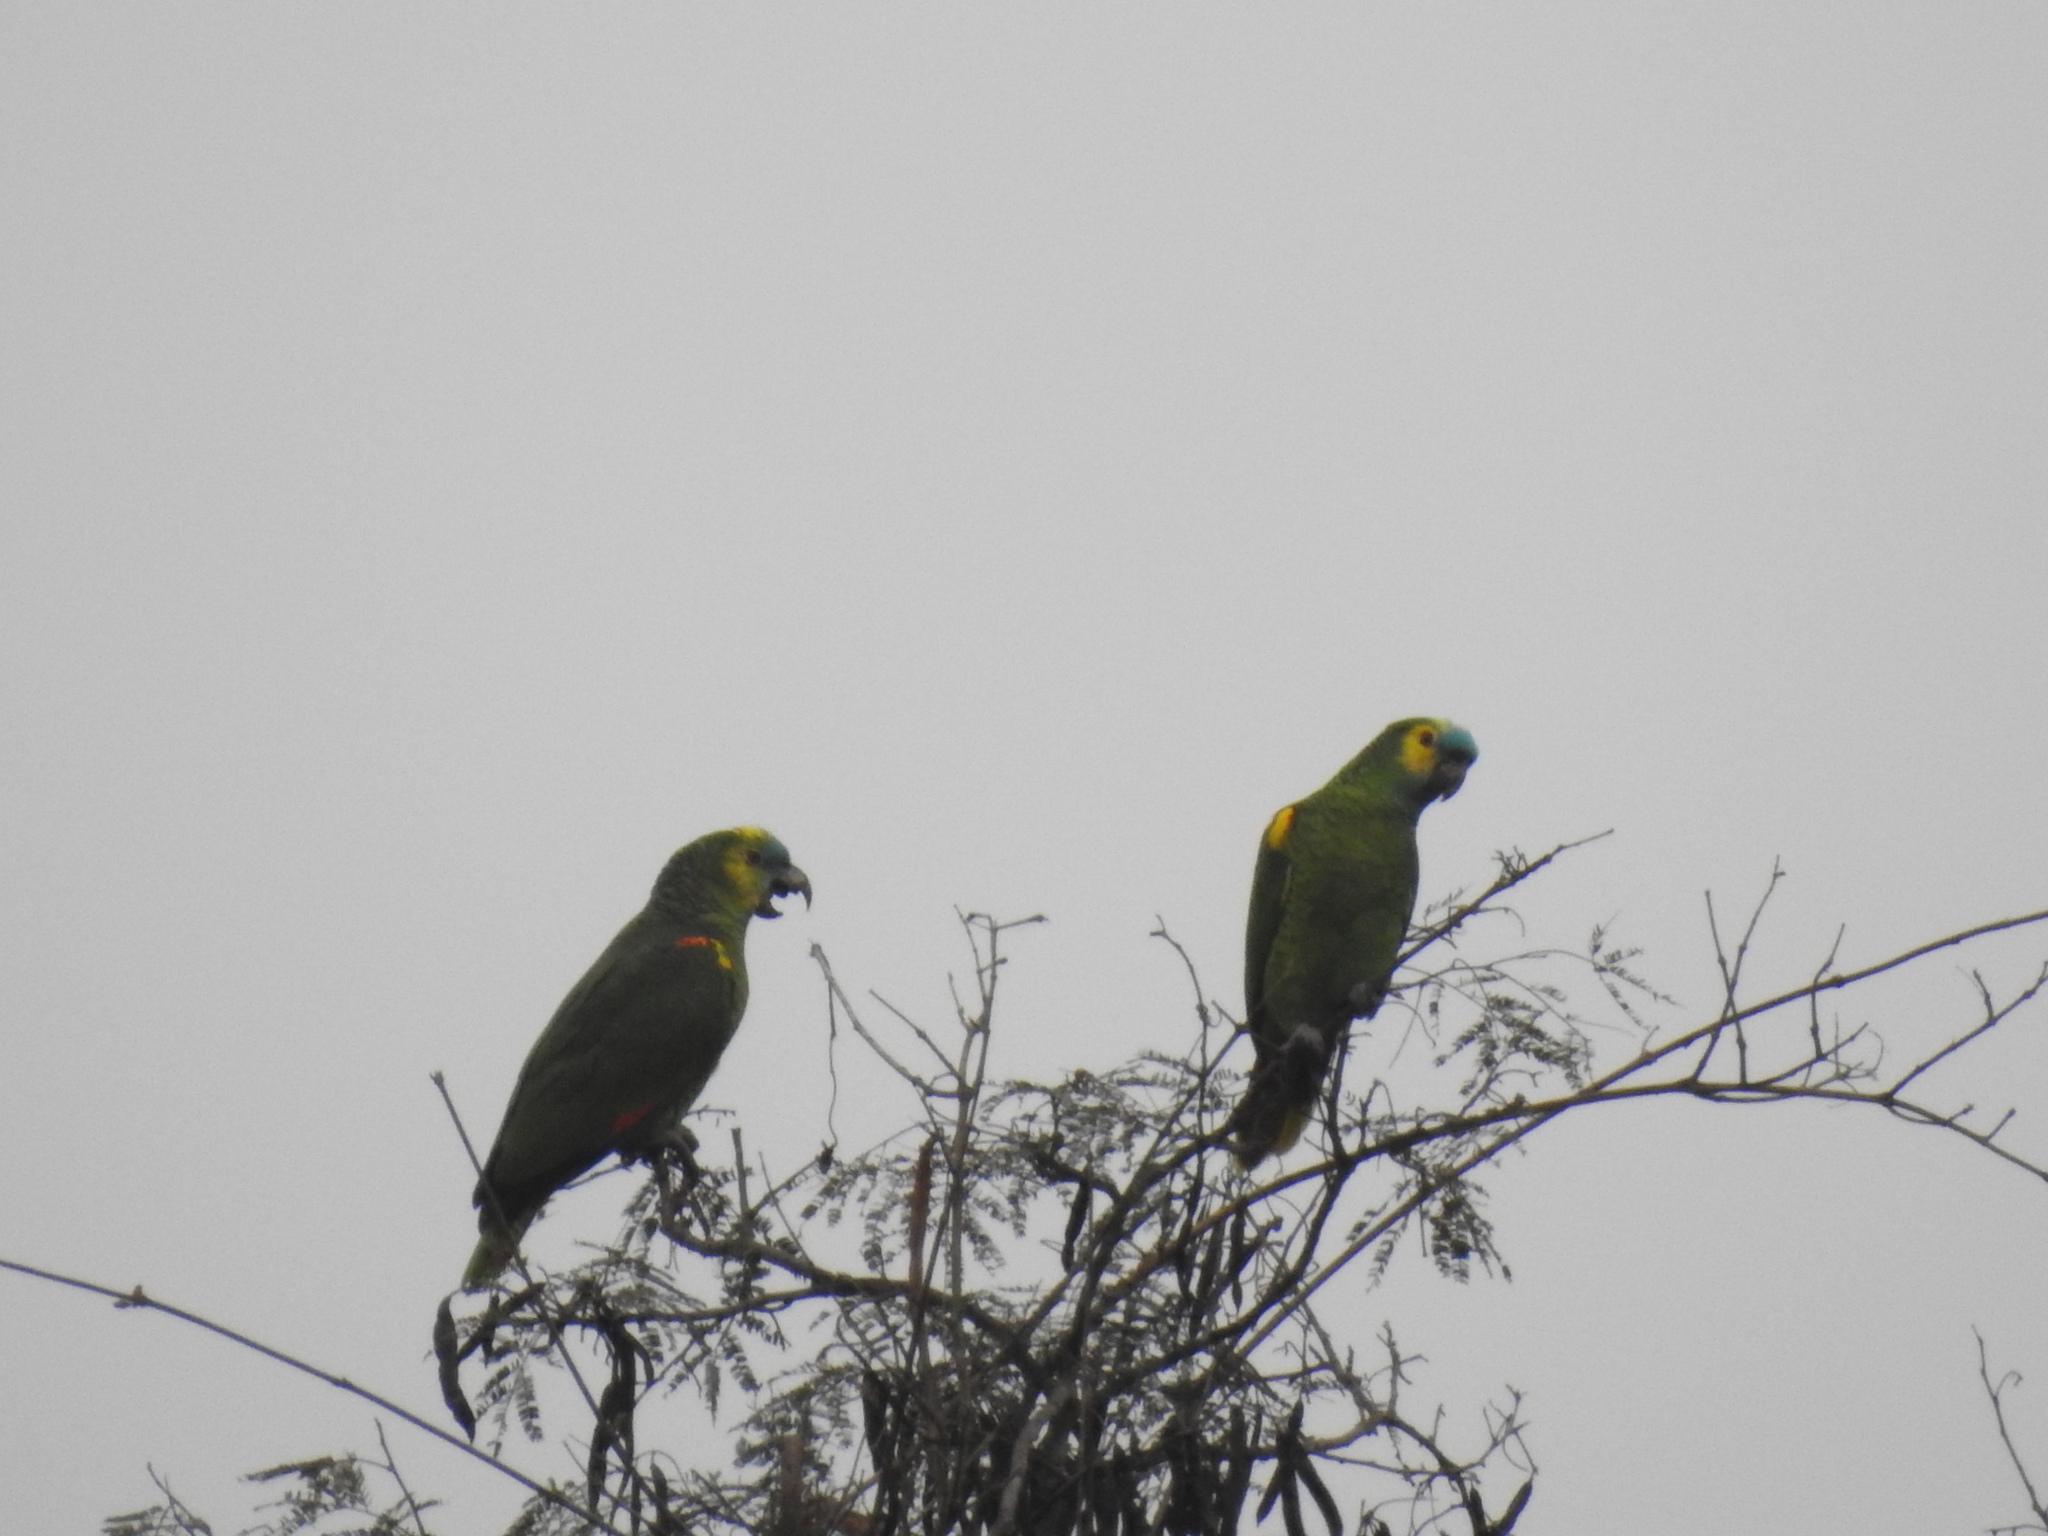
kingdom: Animalia
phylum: Chordata
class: Aves
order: Psittaciformes
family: Psittacidae
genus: Amazona
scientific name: Amazona aestiva
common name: Turquoise-fronted amazon
